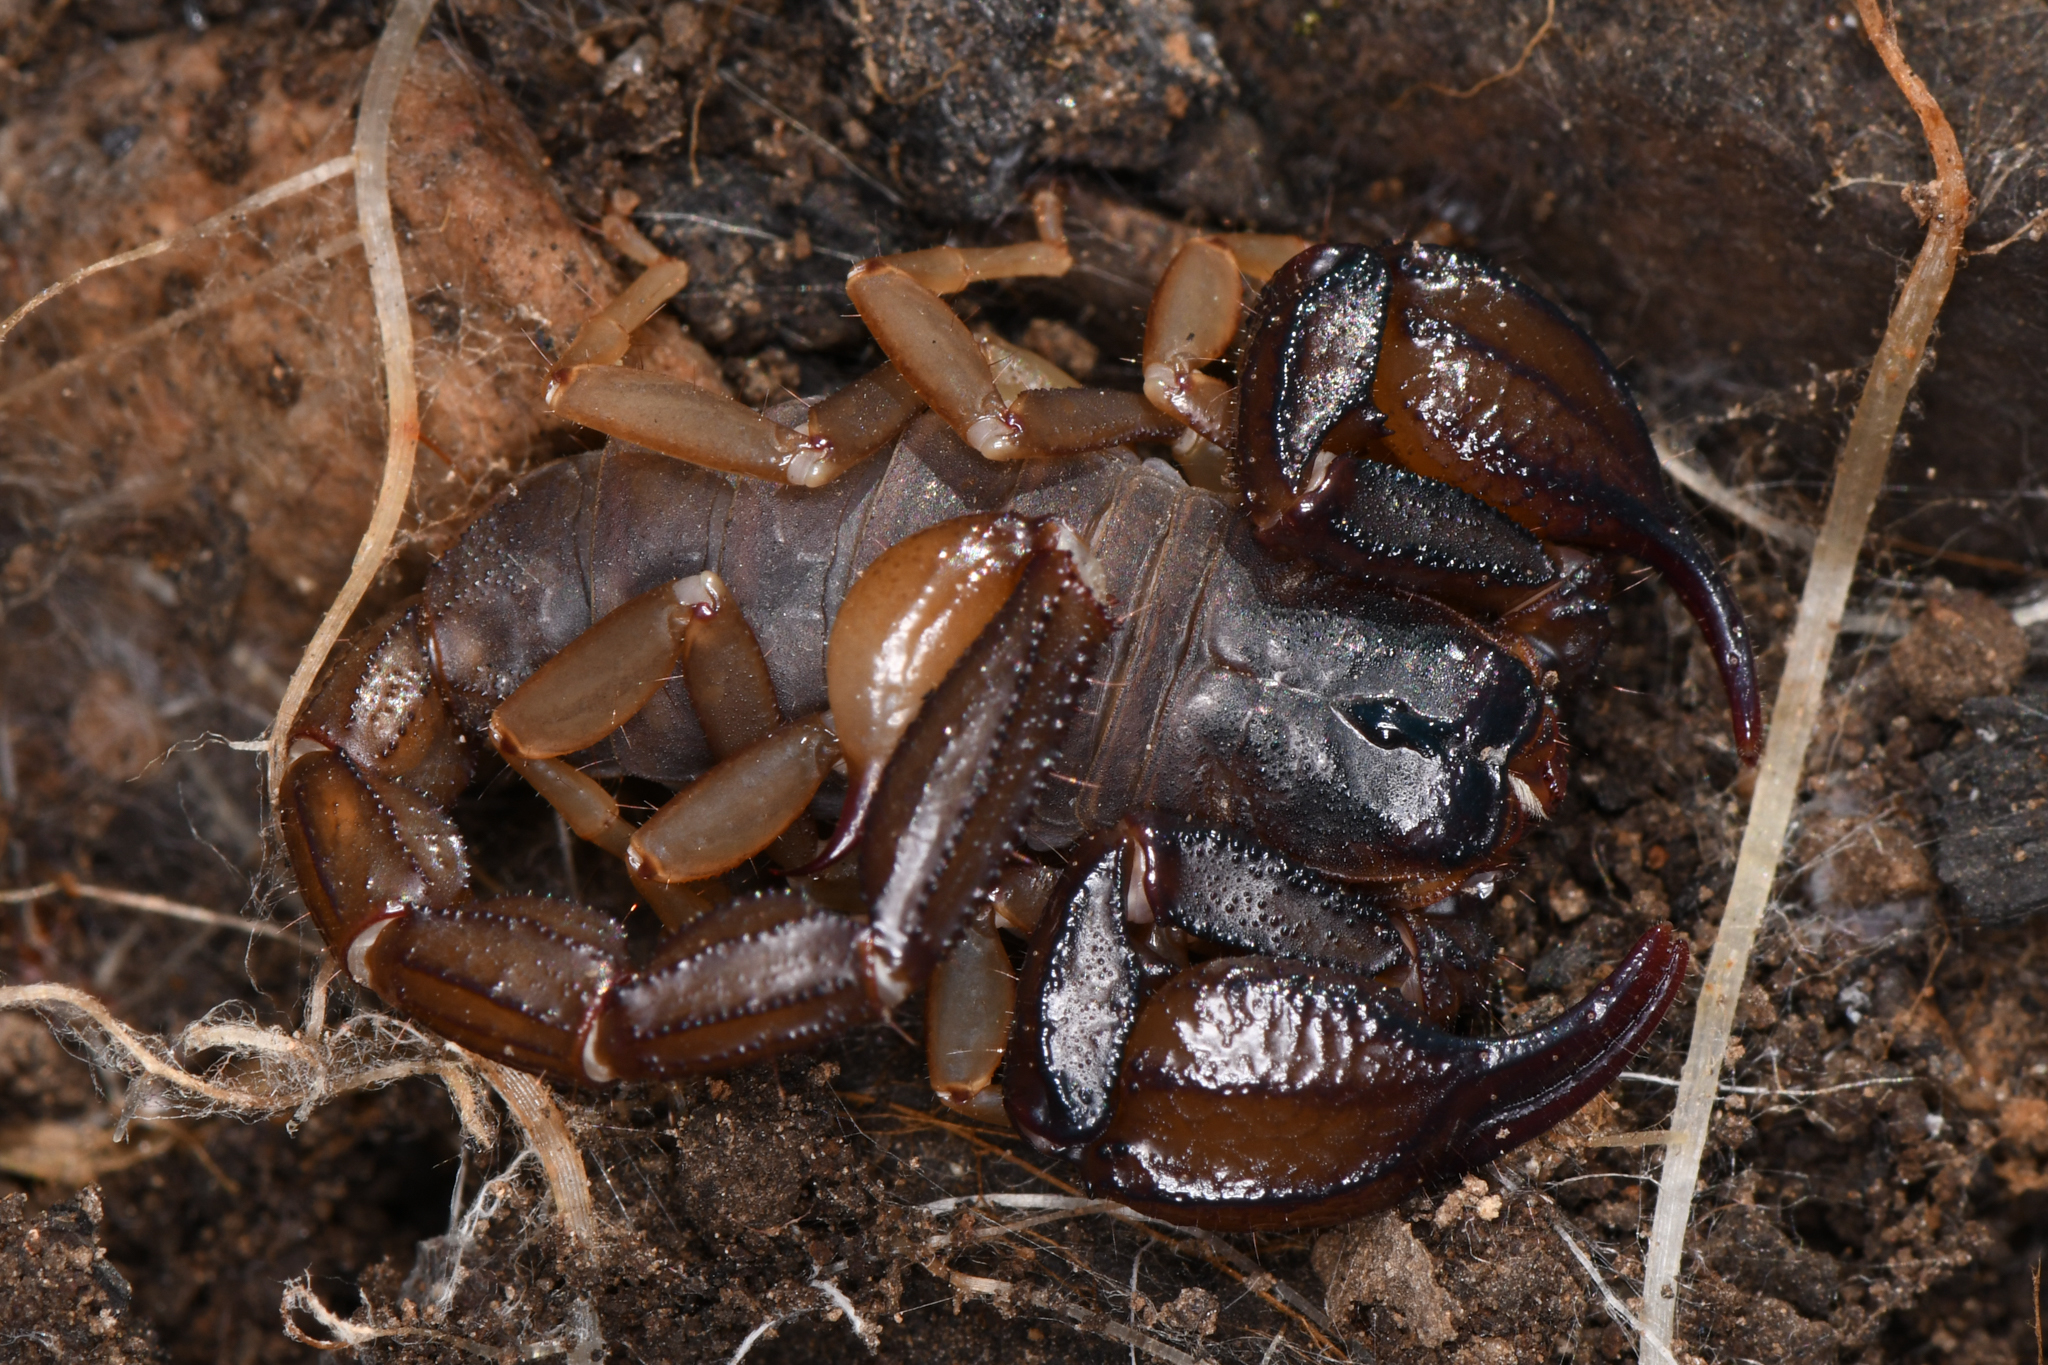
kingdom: Animalia
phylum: Arthropoda
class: Arachnida
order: Scorpiones
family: Chactidae
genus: Uroctonus
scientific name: Uroctonus mordax
